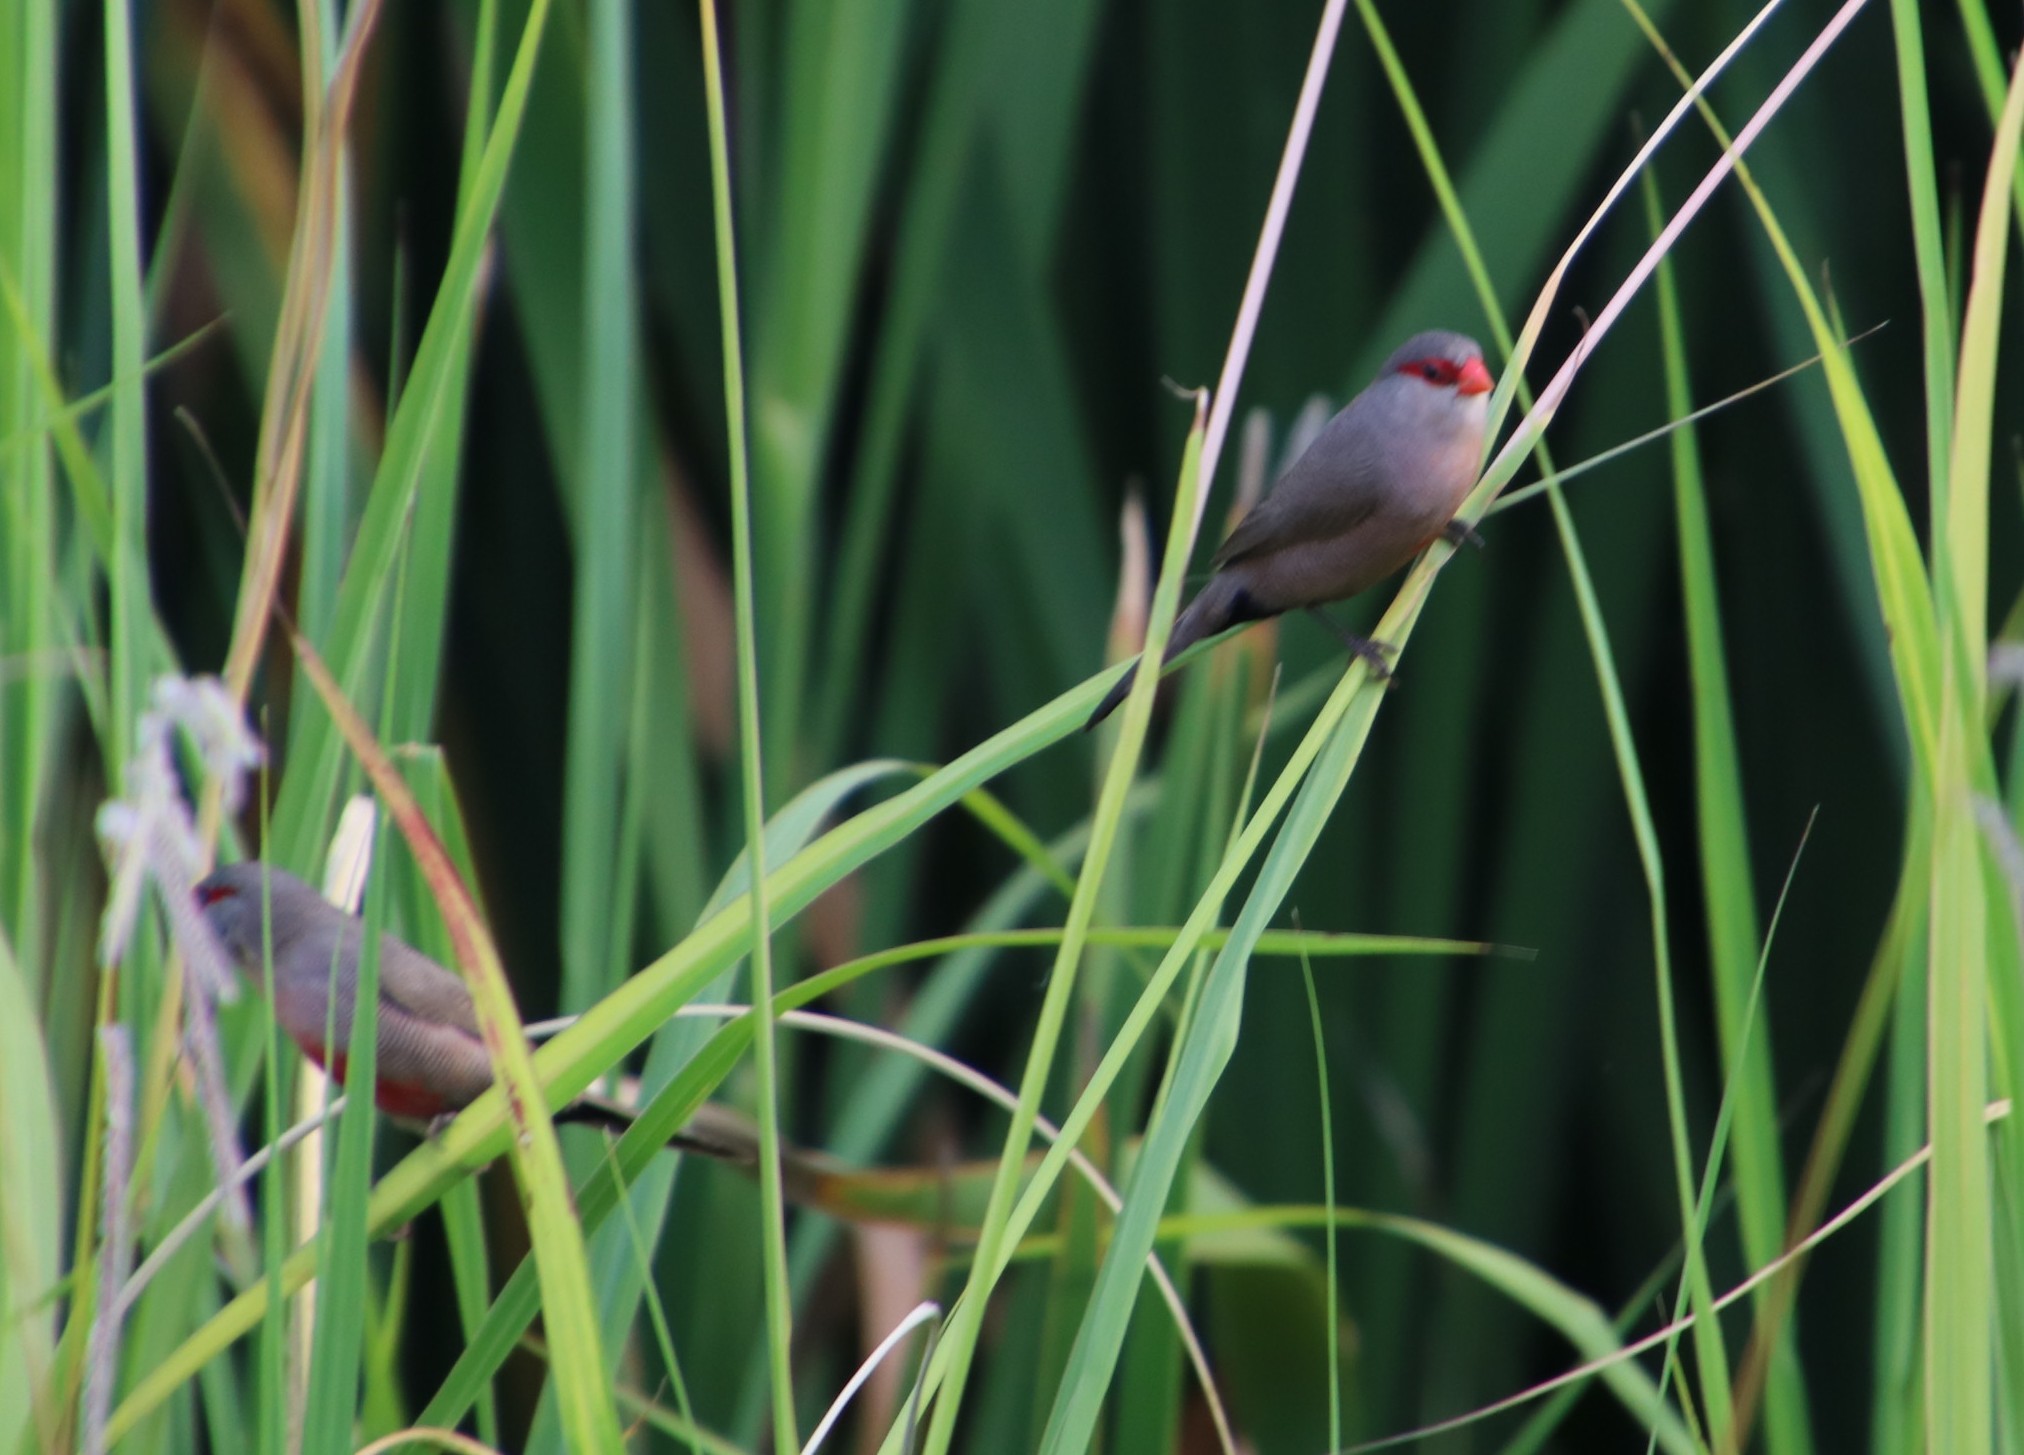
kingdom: Animalia
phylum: Chordata
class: Aves
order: Passeriformes
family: Estrildidae
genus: Estrilda
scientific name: Estrilda astrild
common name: Common waxbill
